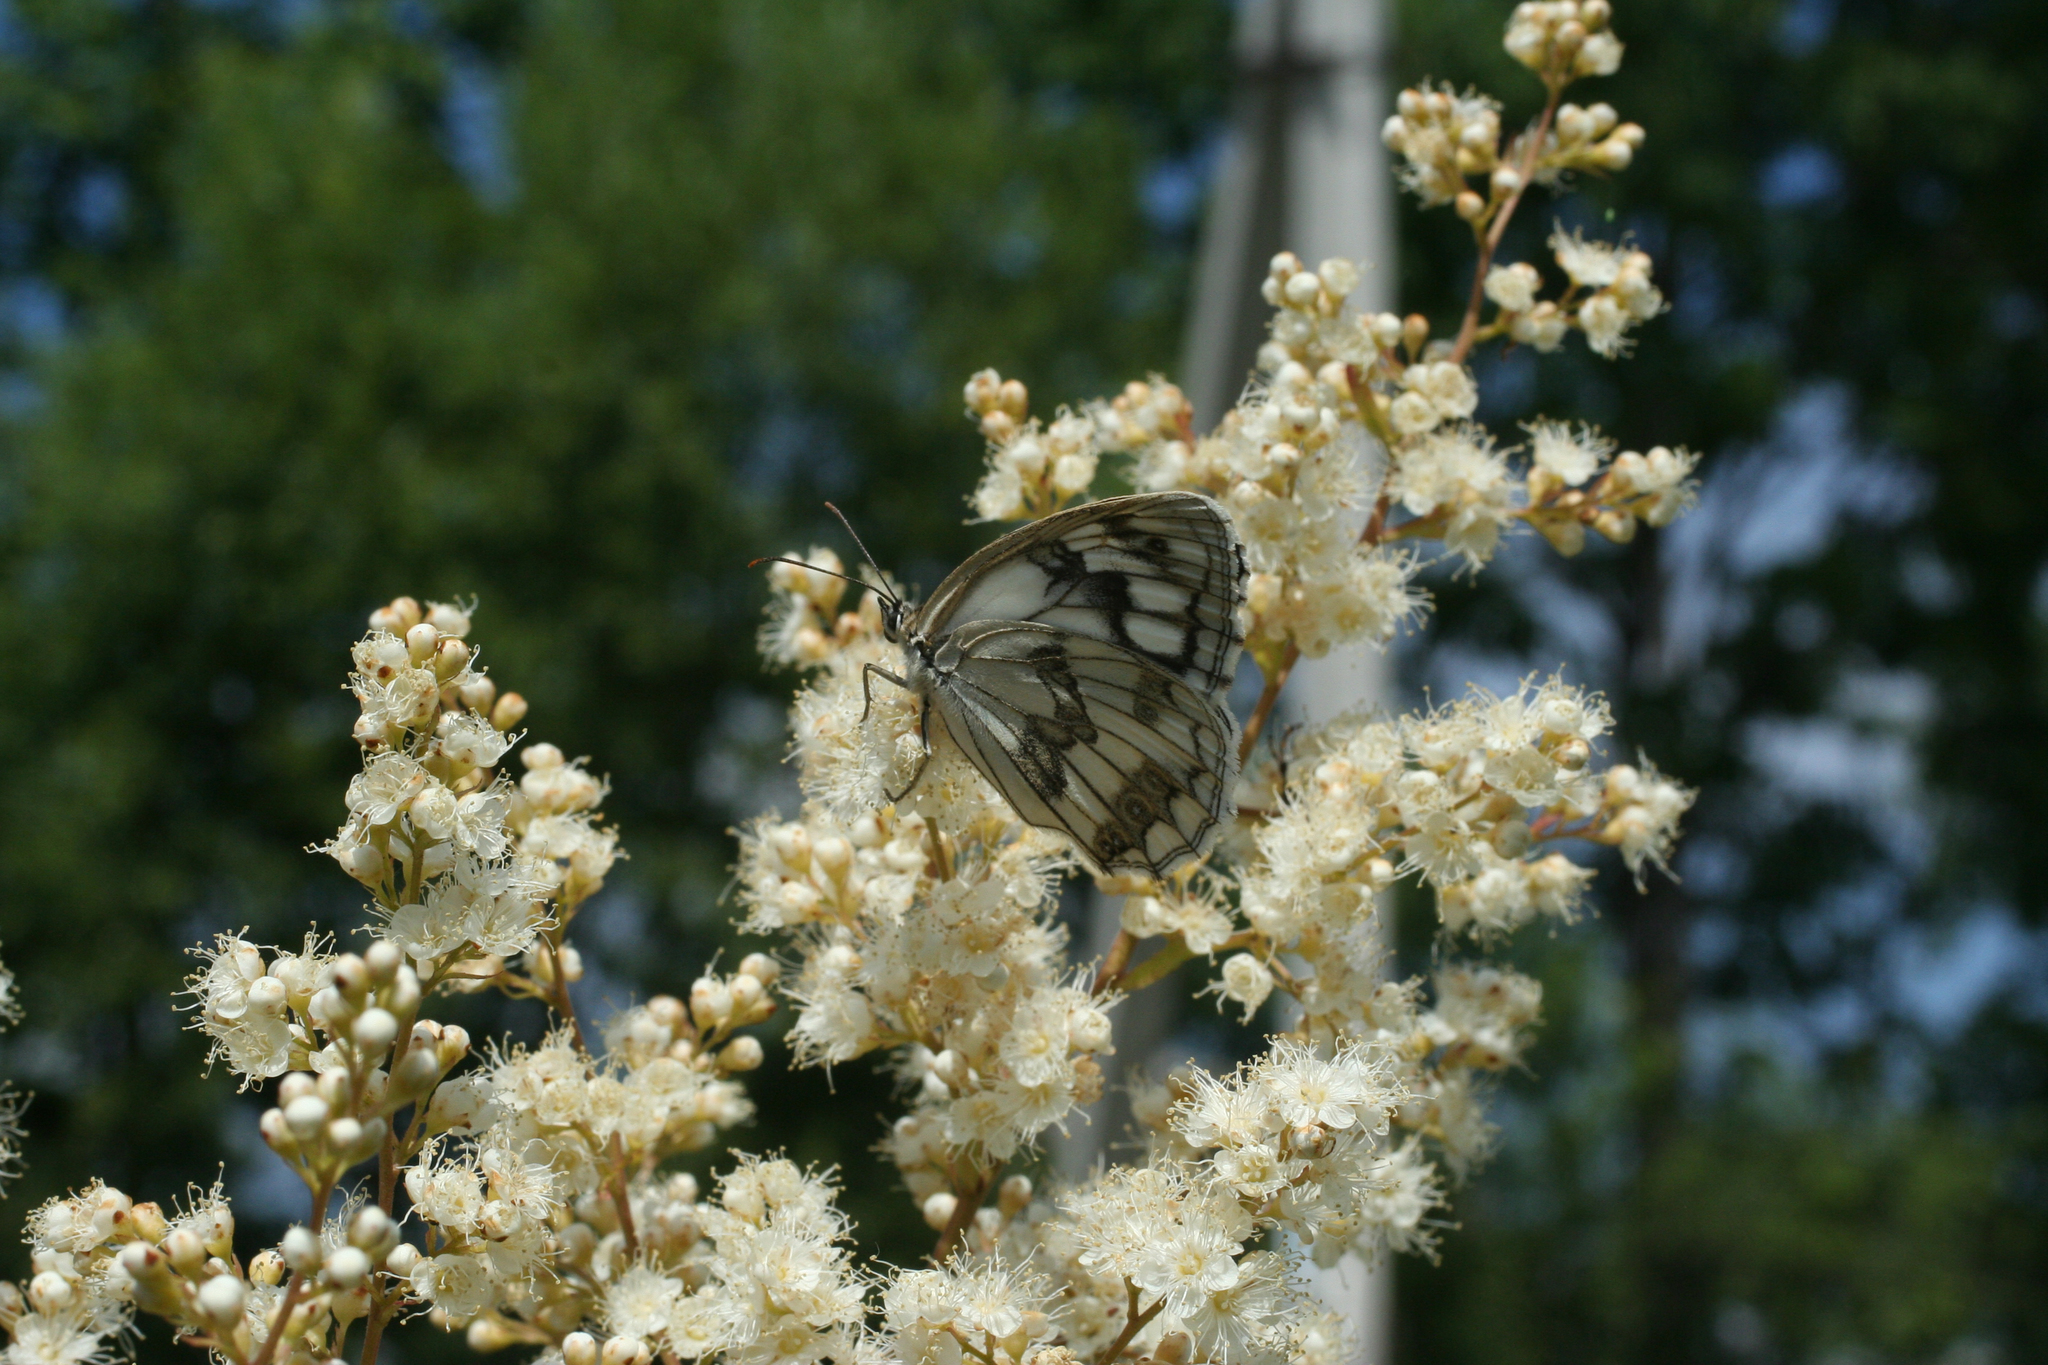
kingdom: Plantae
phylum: Tracheophyta
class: Magnoliopsida
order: Rosales
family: Rosaceae
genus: Sorbaria
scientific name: Sorbaria sorbifolia
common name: False spiraea
